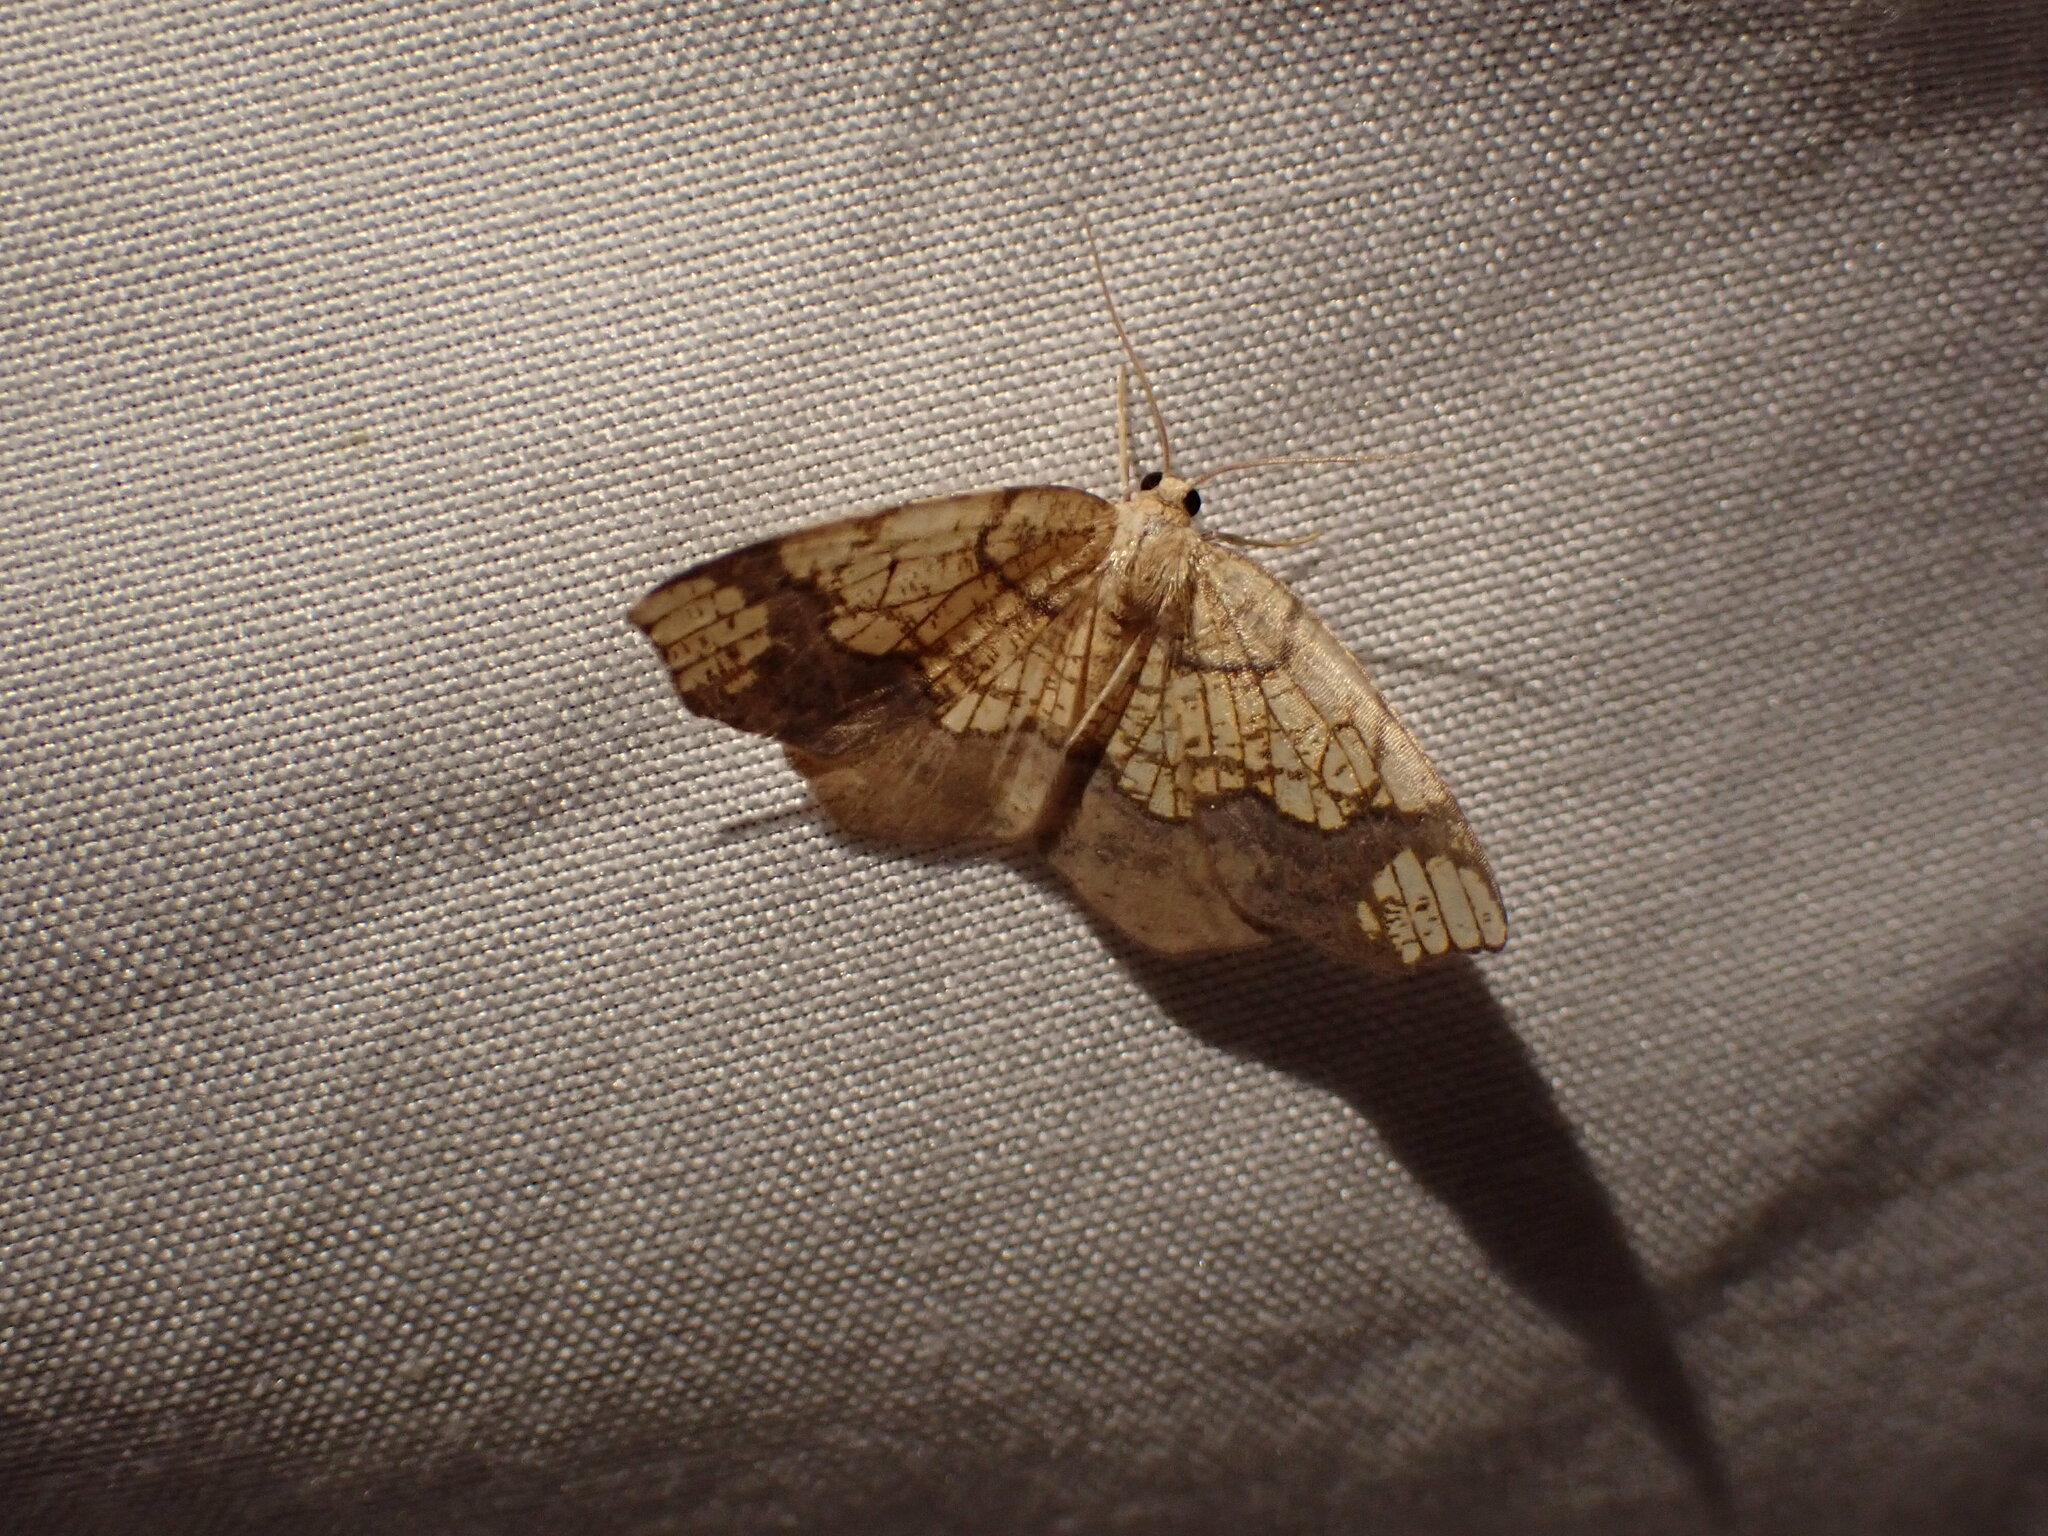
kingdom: Animalia
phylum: Arthropoda
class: Insecta
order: Lepidoptera
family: Geometridae
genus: Nematocampa
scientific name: Nematocampa resistaria
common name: Horned spanworm moth
